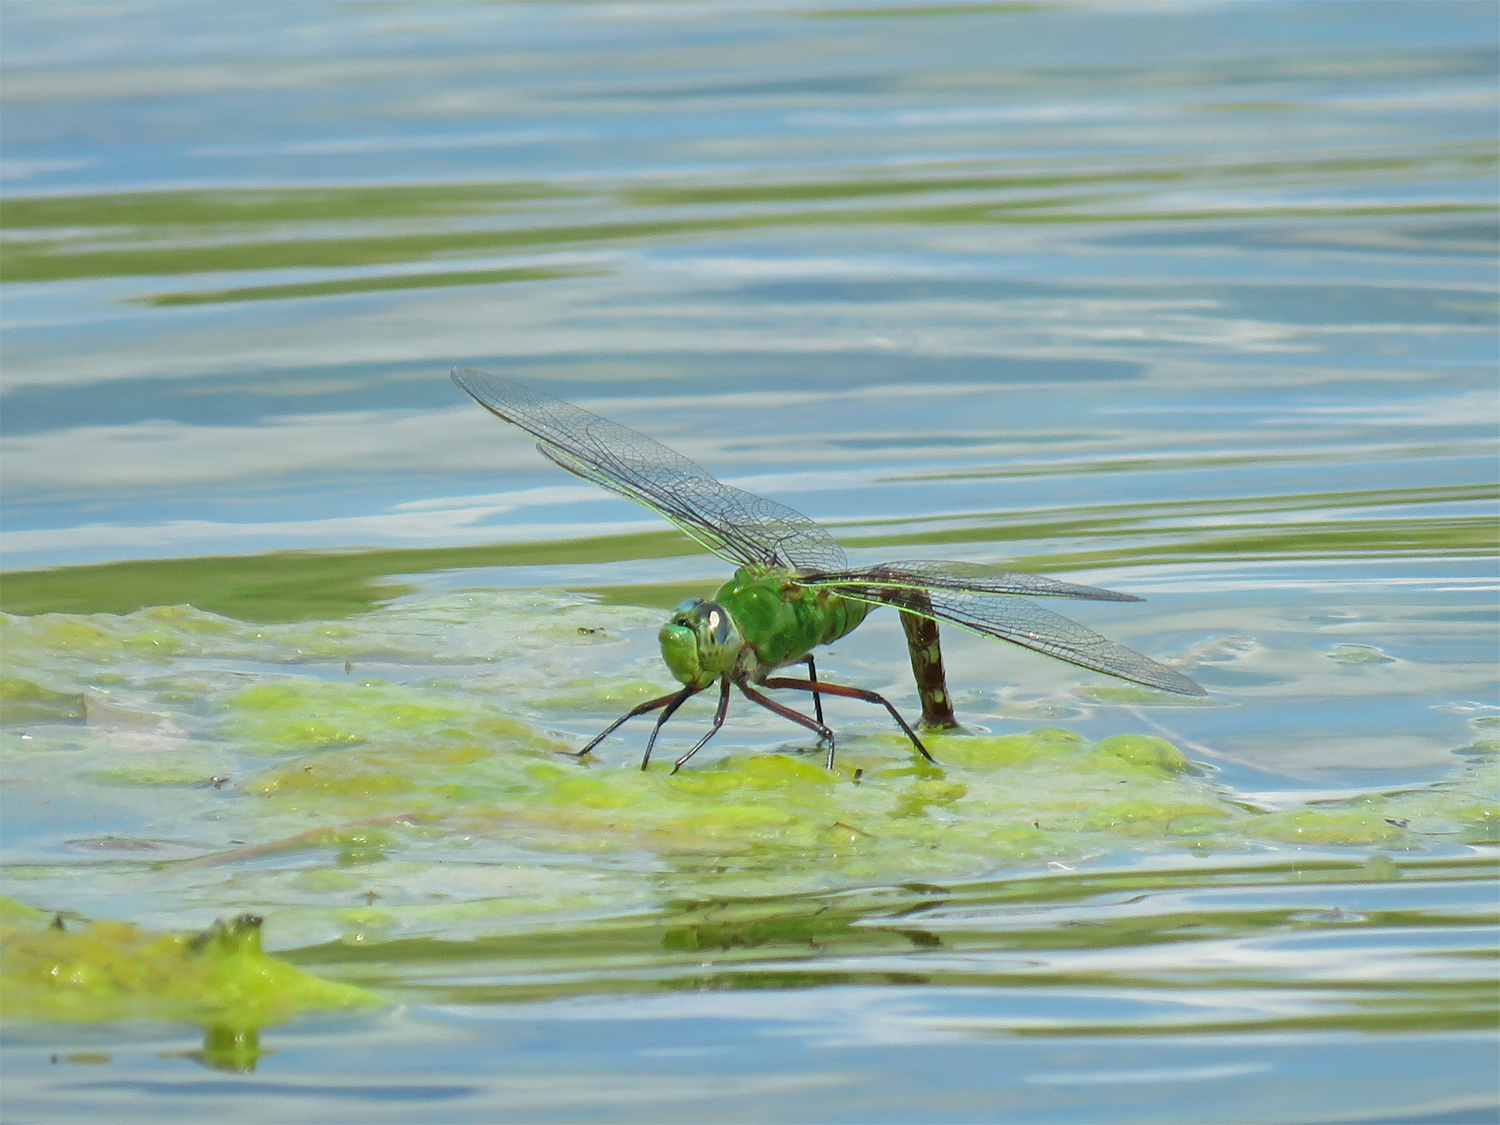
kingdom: Animalia
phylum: Arthropoda
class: Insecta
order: Odonata
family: Aeshnidae
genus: Anax
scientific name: Anax longipes
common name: Comet darner
